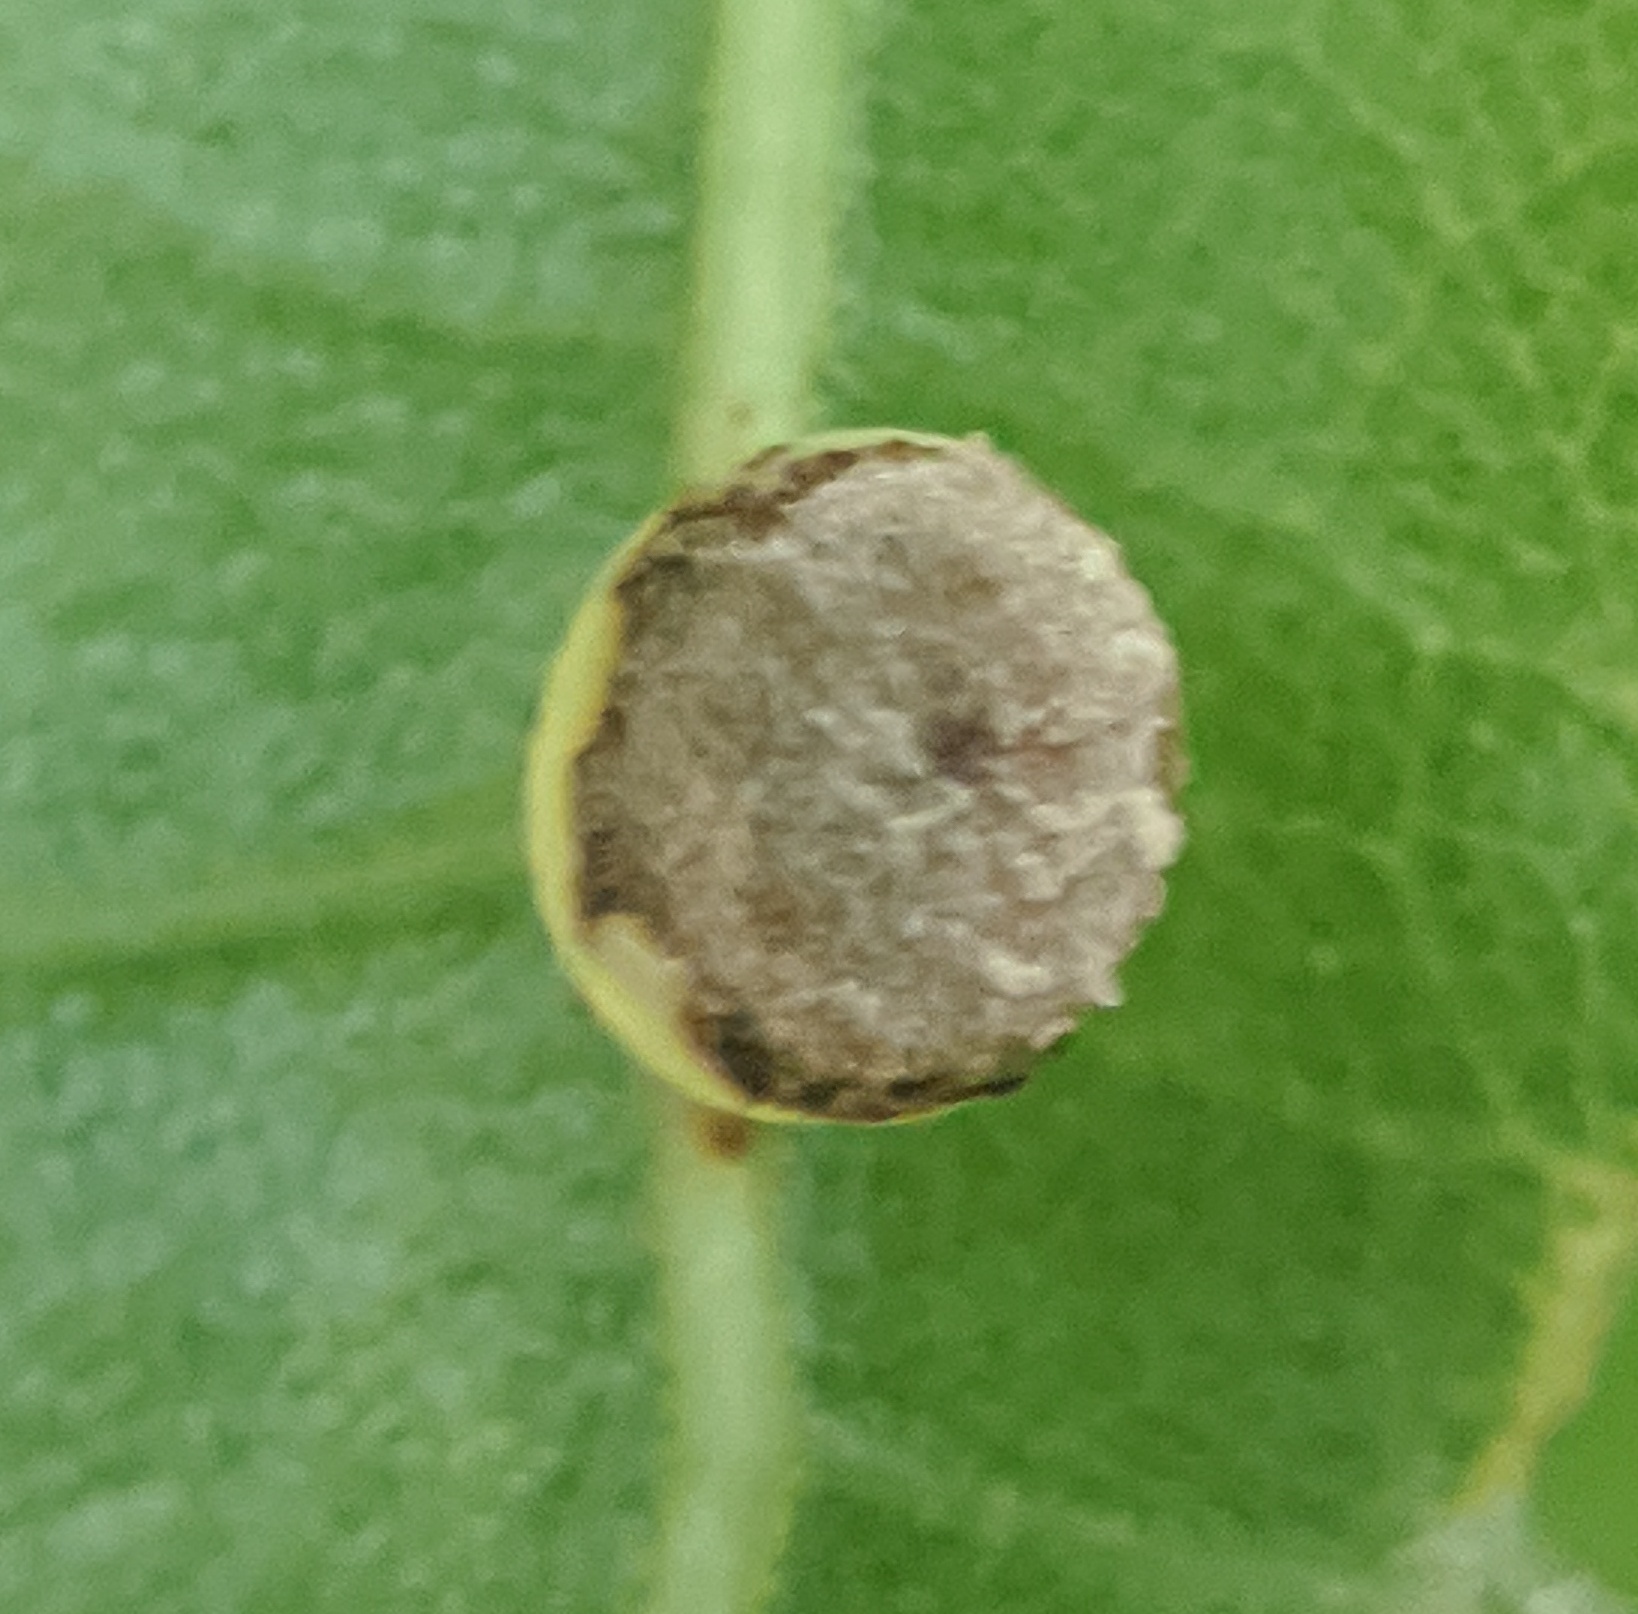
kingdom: Animalia
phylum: Arthropoda
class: Insecta
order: Hymenoptera
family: Cynipidae
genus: Kokkocynips
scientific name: Kokkocynips rileyi
